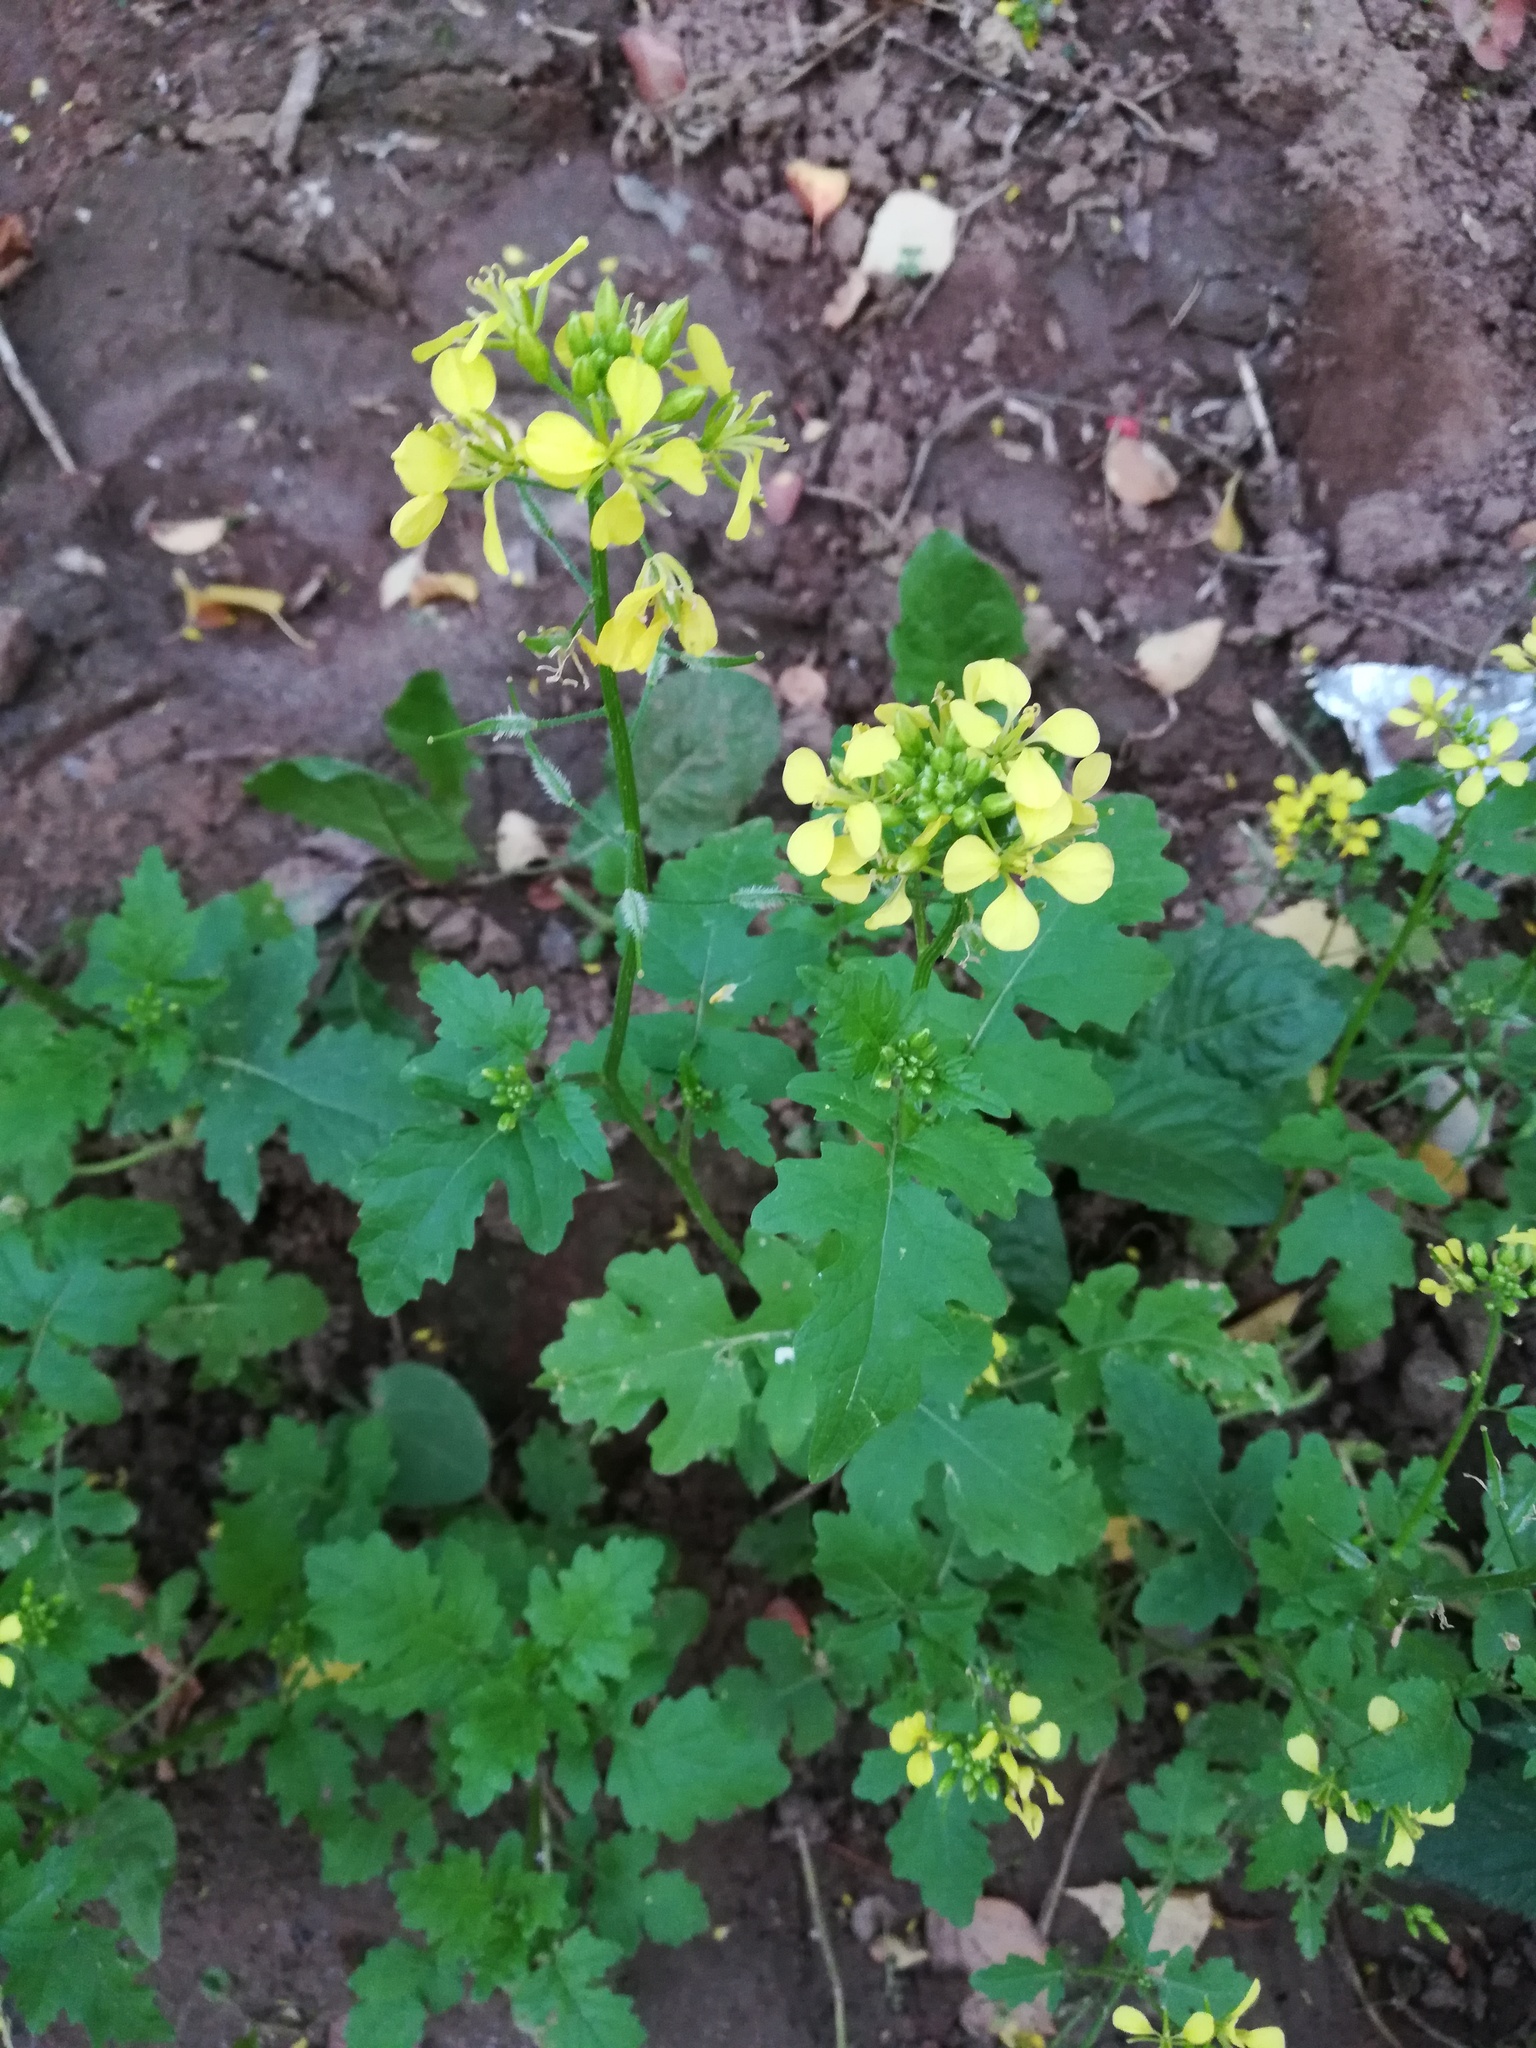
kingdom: Plantae
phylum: Tracheophyta
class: Magnoliopsida
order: Brassicales
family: Brassicaceae
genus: Sinapis
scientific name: Sinapis alba
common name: White mustard
